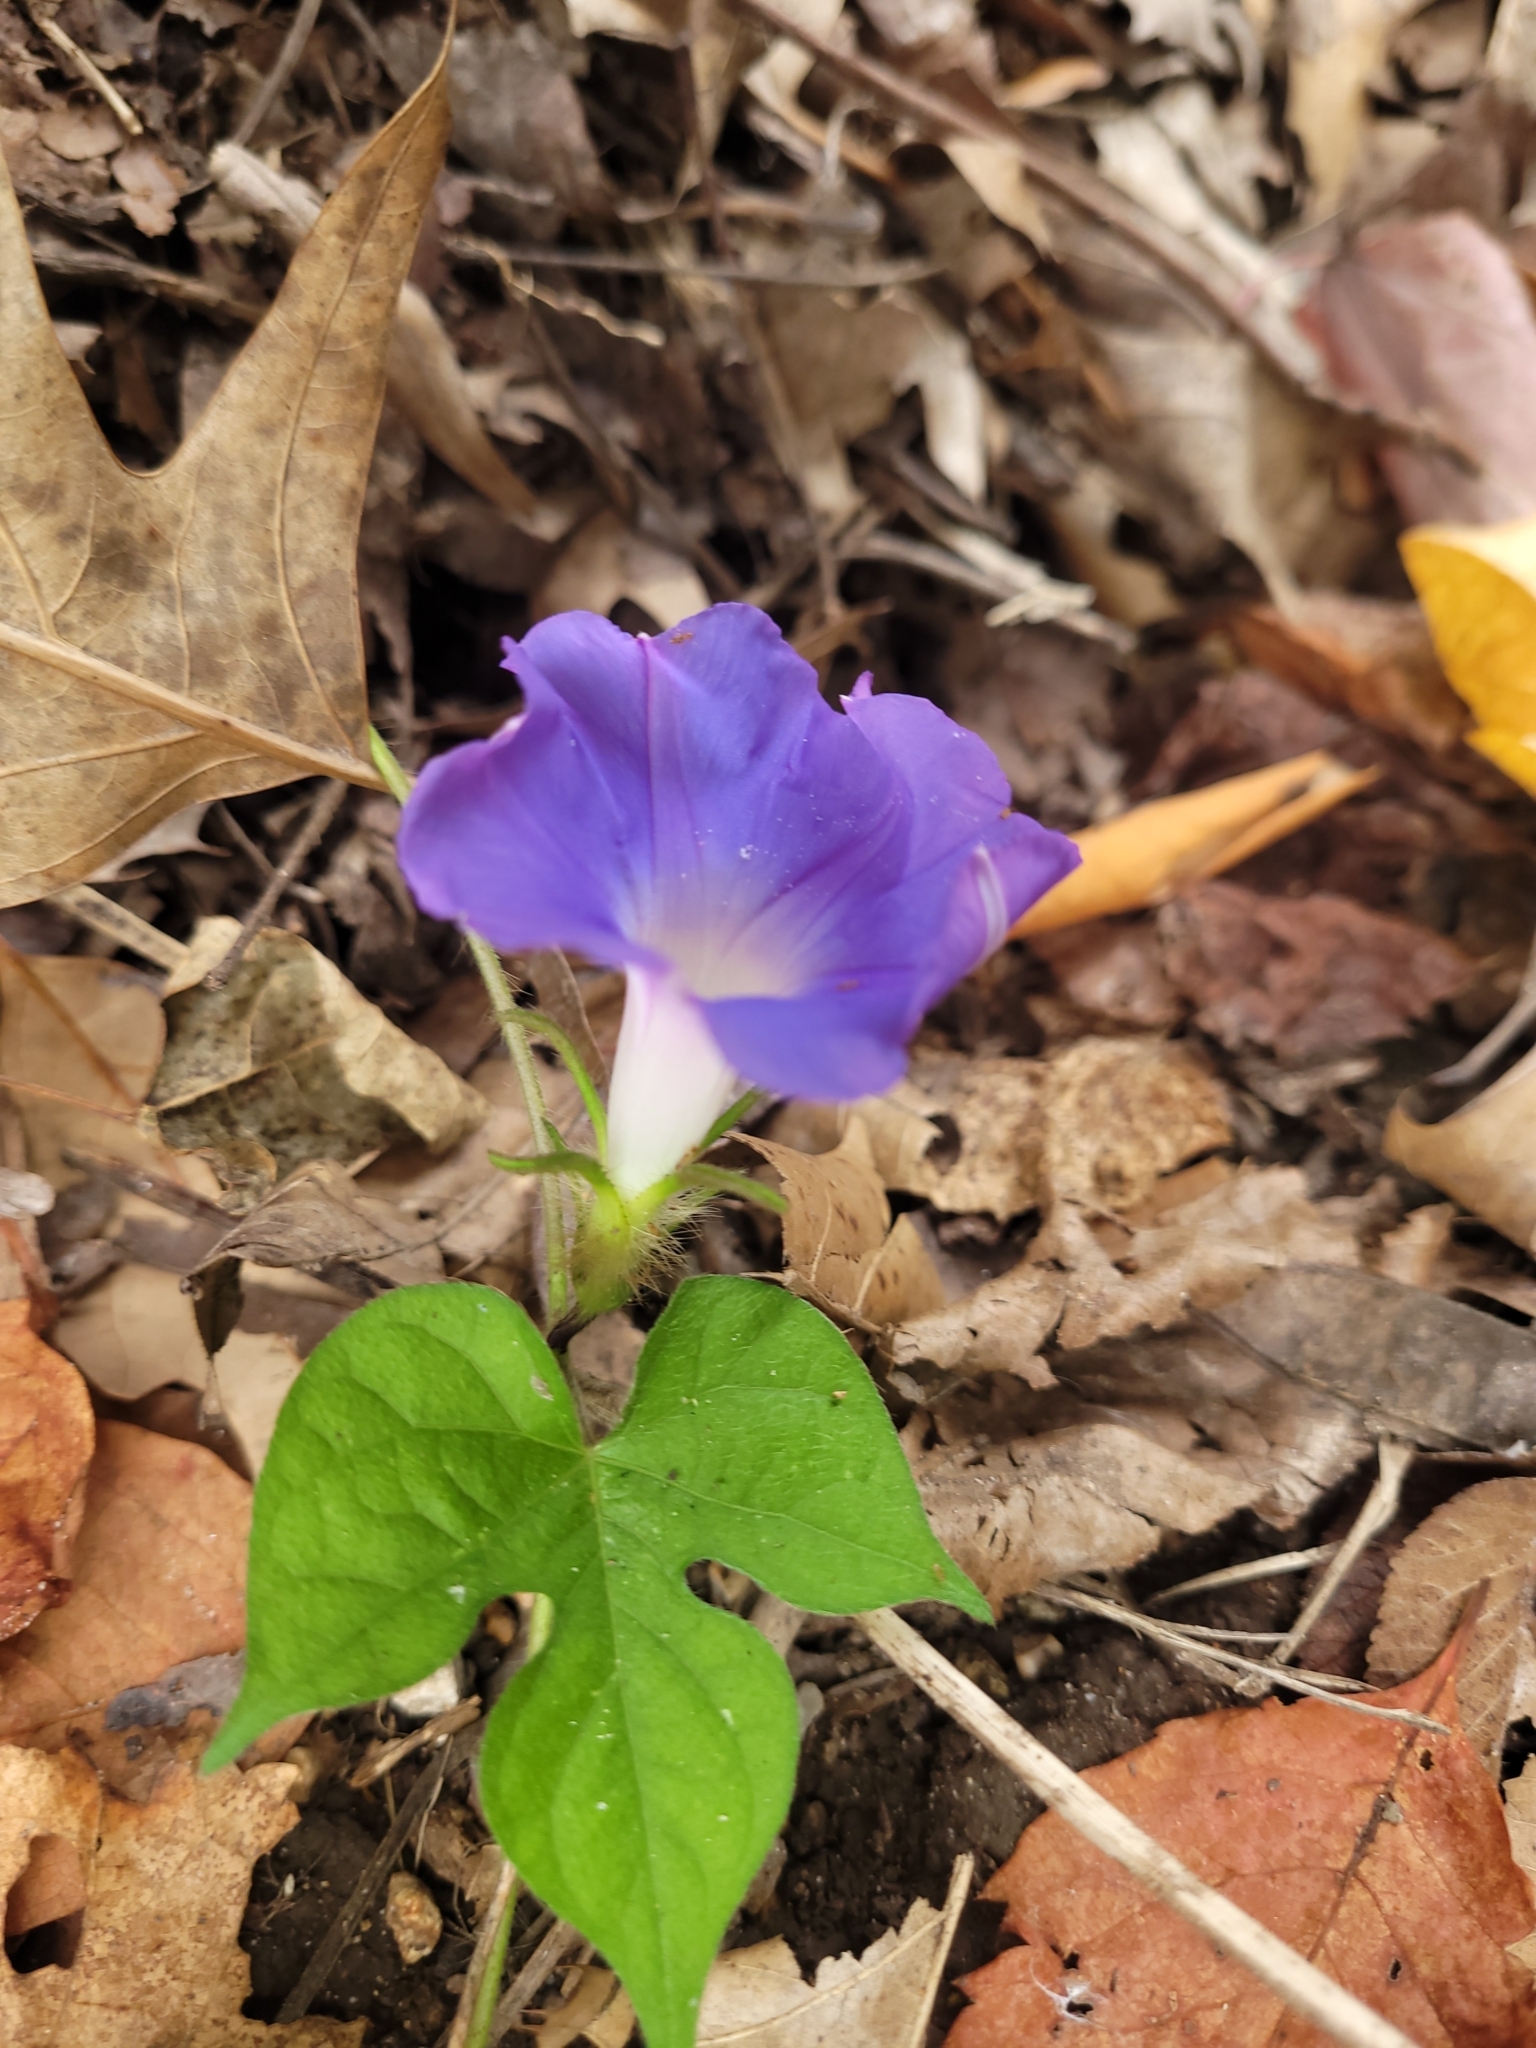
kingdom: Plantae
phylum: Tracheophyta
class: Magnoliopsida
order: Solanales
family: Convolvulaceae
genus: Ipomoea
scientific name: Ipomoea hederacea
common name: Ivy-leaved morning-glory
